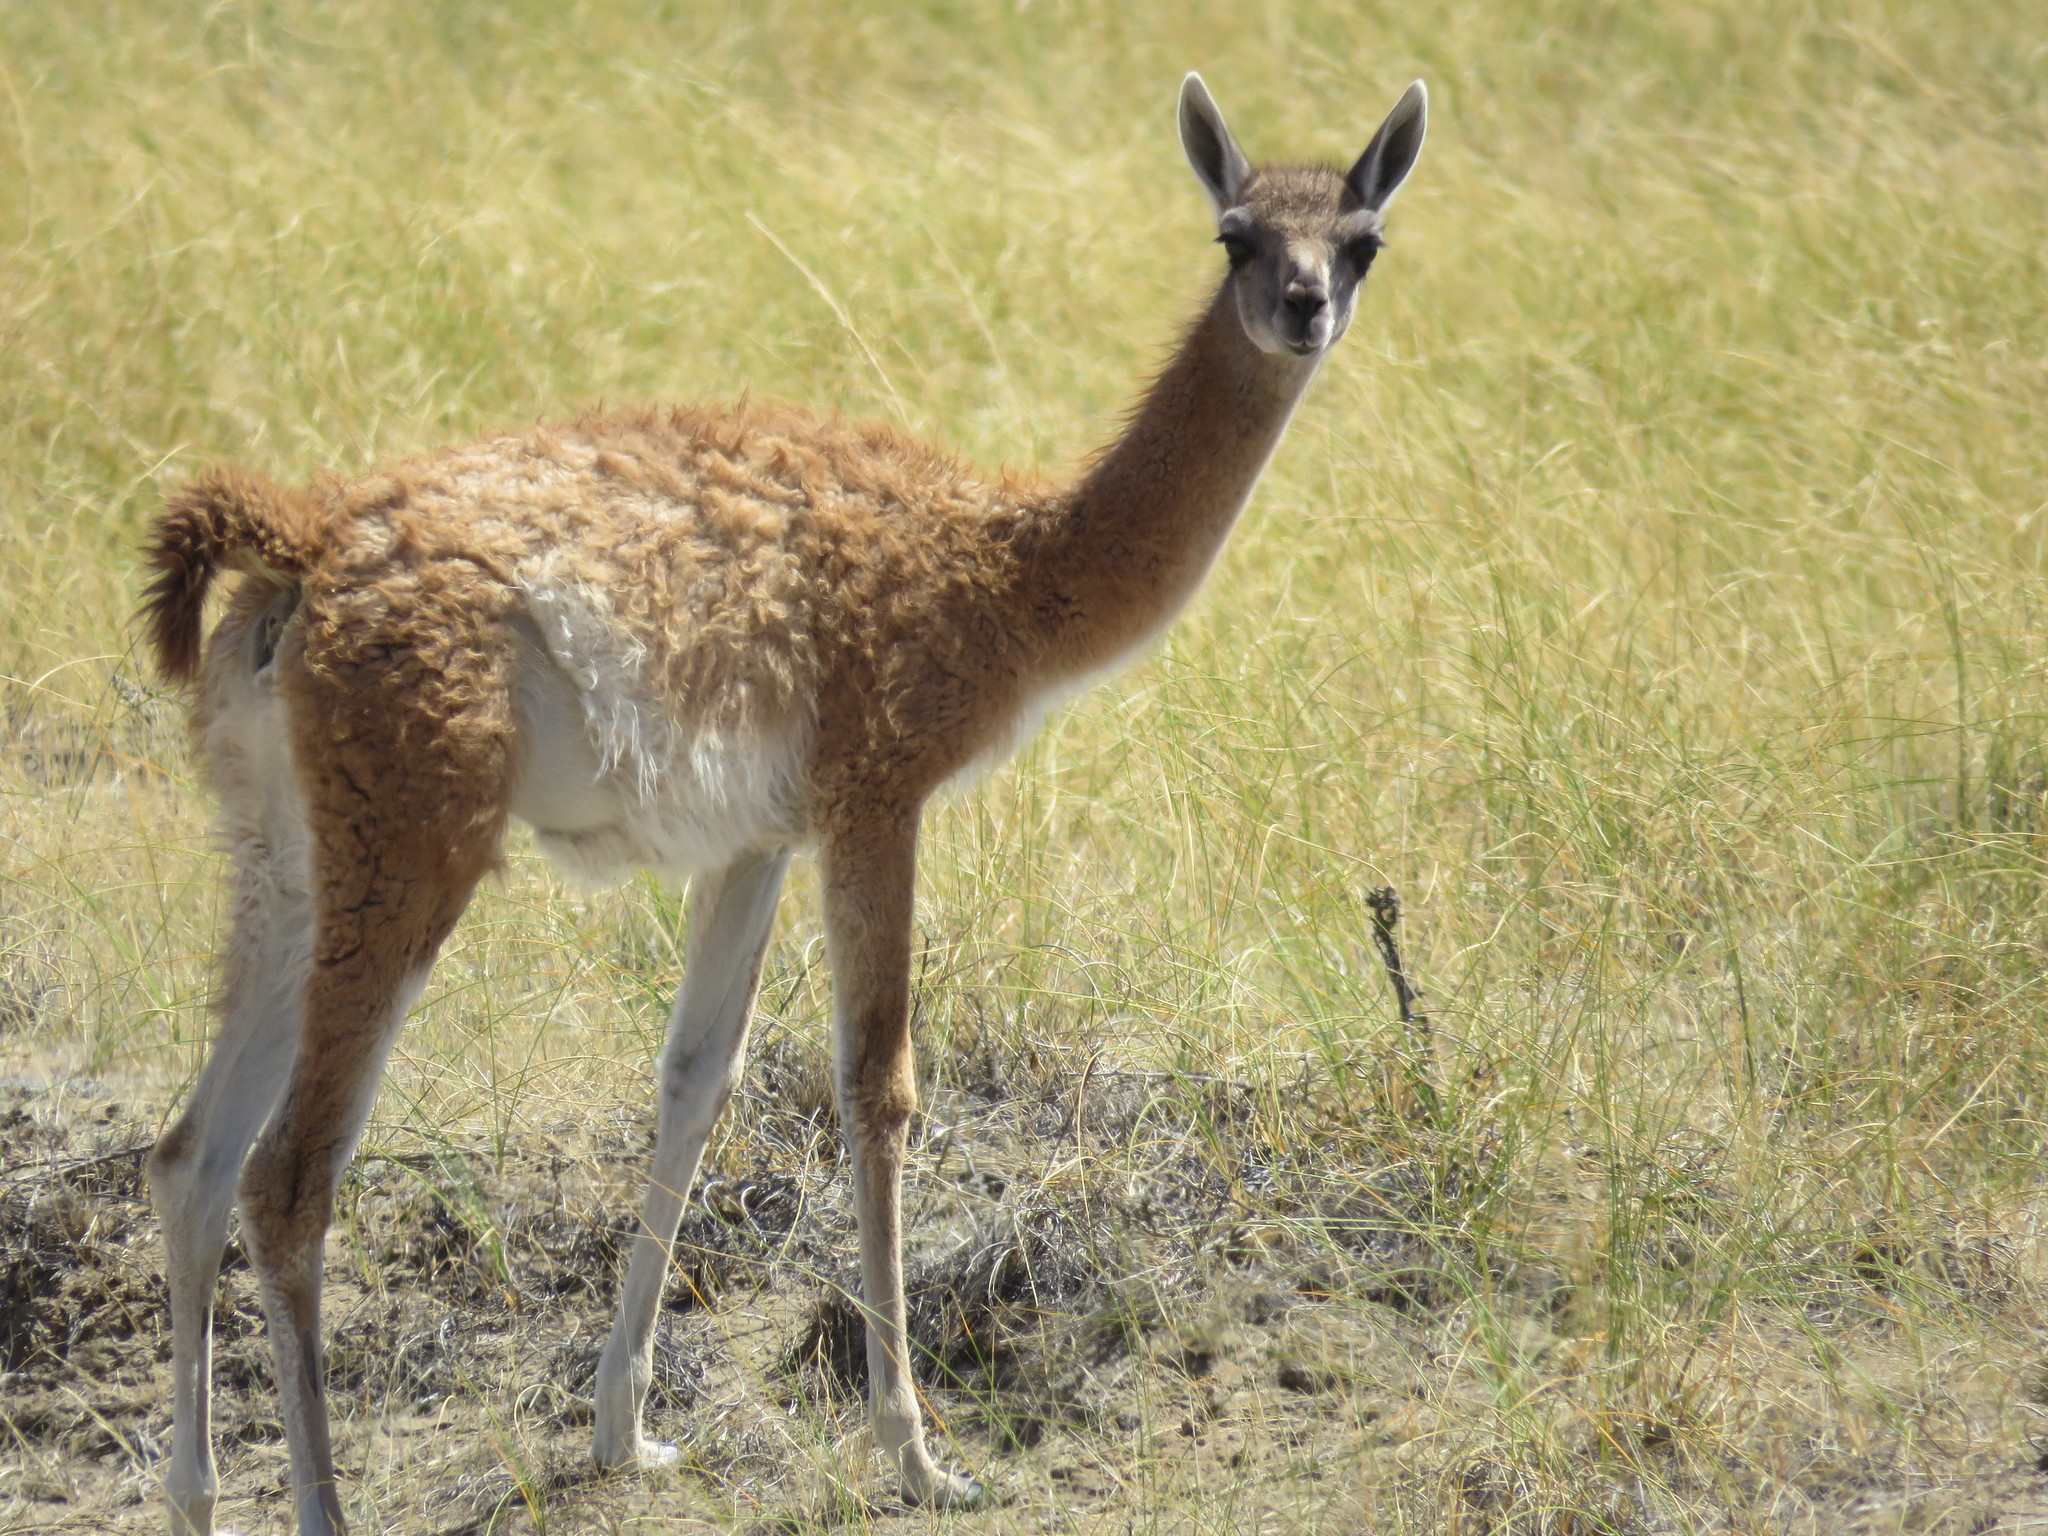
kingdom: Animalia
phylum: Chordata
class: Mammalia
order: Artiodactyla
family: Camelidae
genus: Lama
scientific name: Lama glama
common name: Llama
